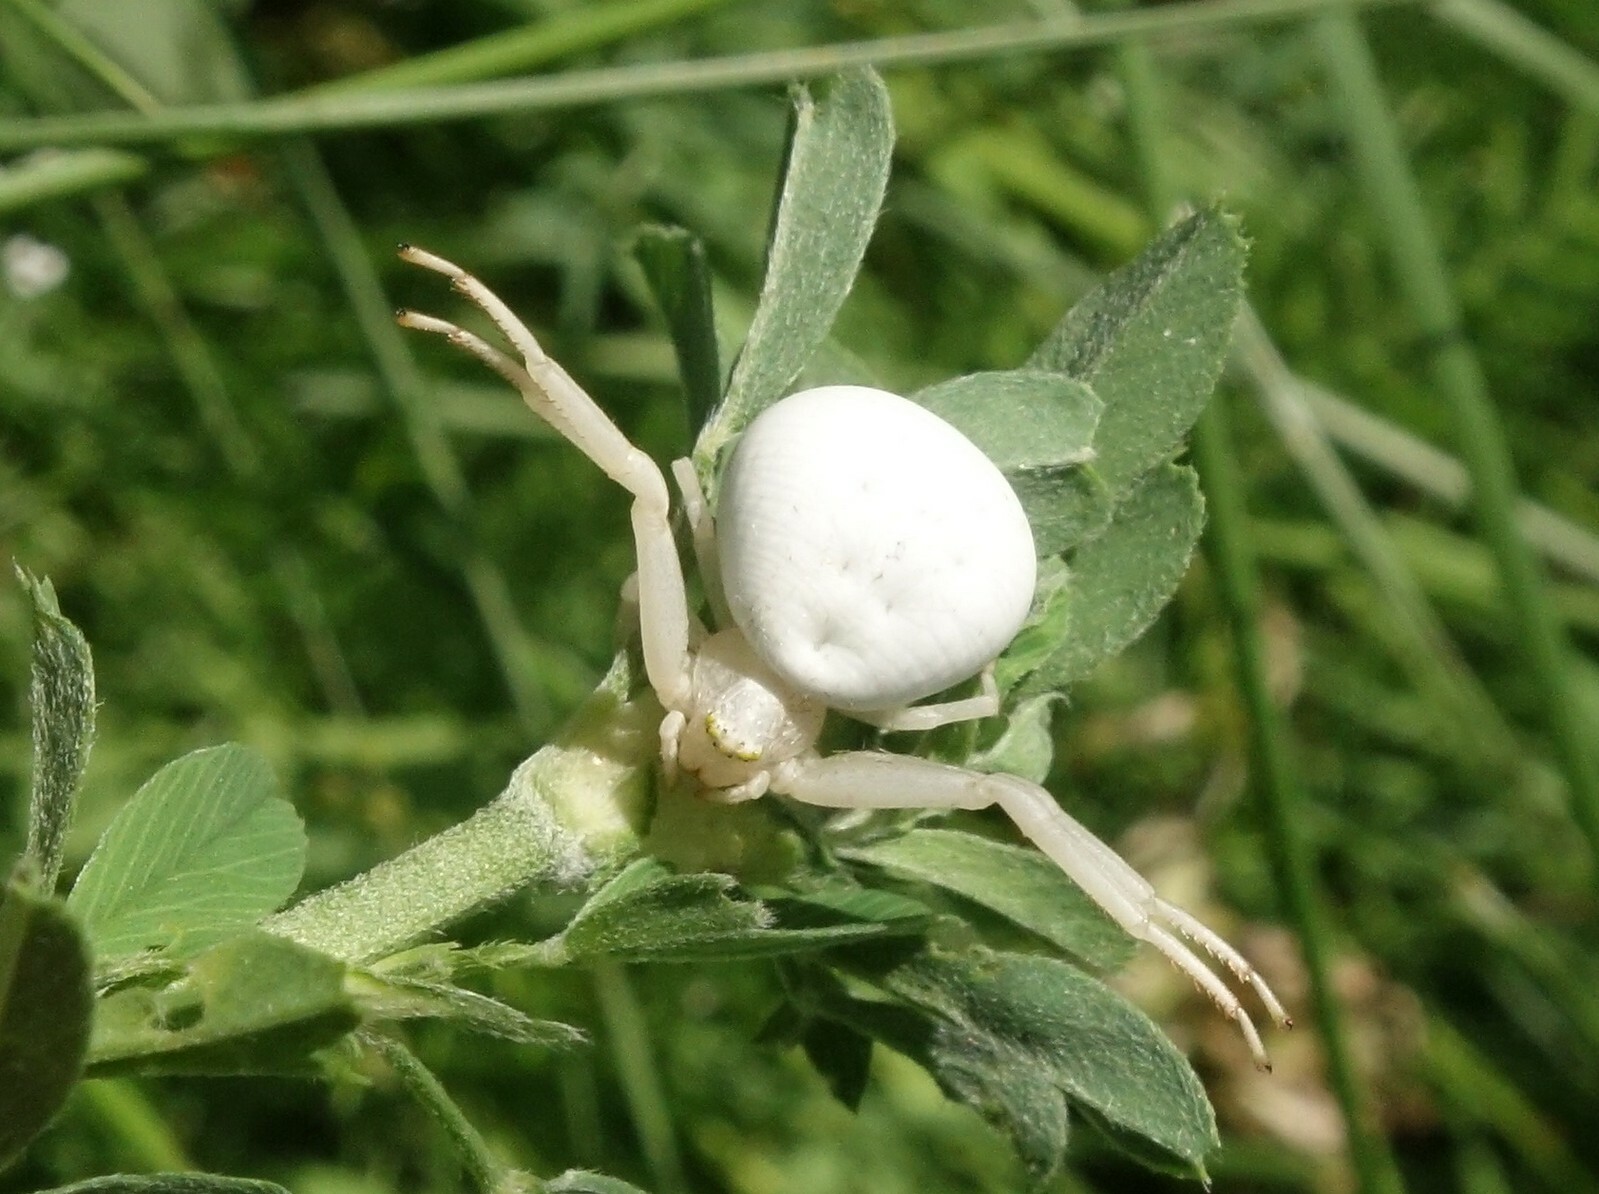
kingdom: Animalia
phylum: Arthropoda
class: Arachnida
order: Araneae
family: Thomisidae
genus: Misumena
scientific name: Misumena vatia
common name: Goldenrod crab spider
